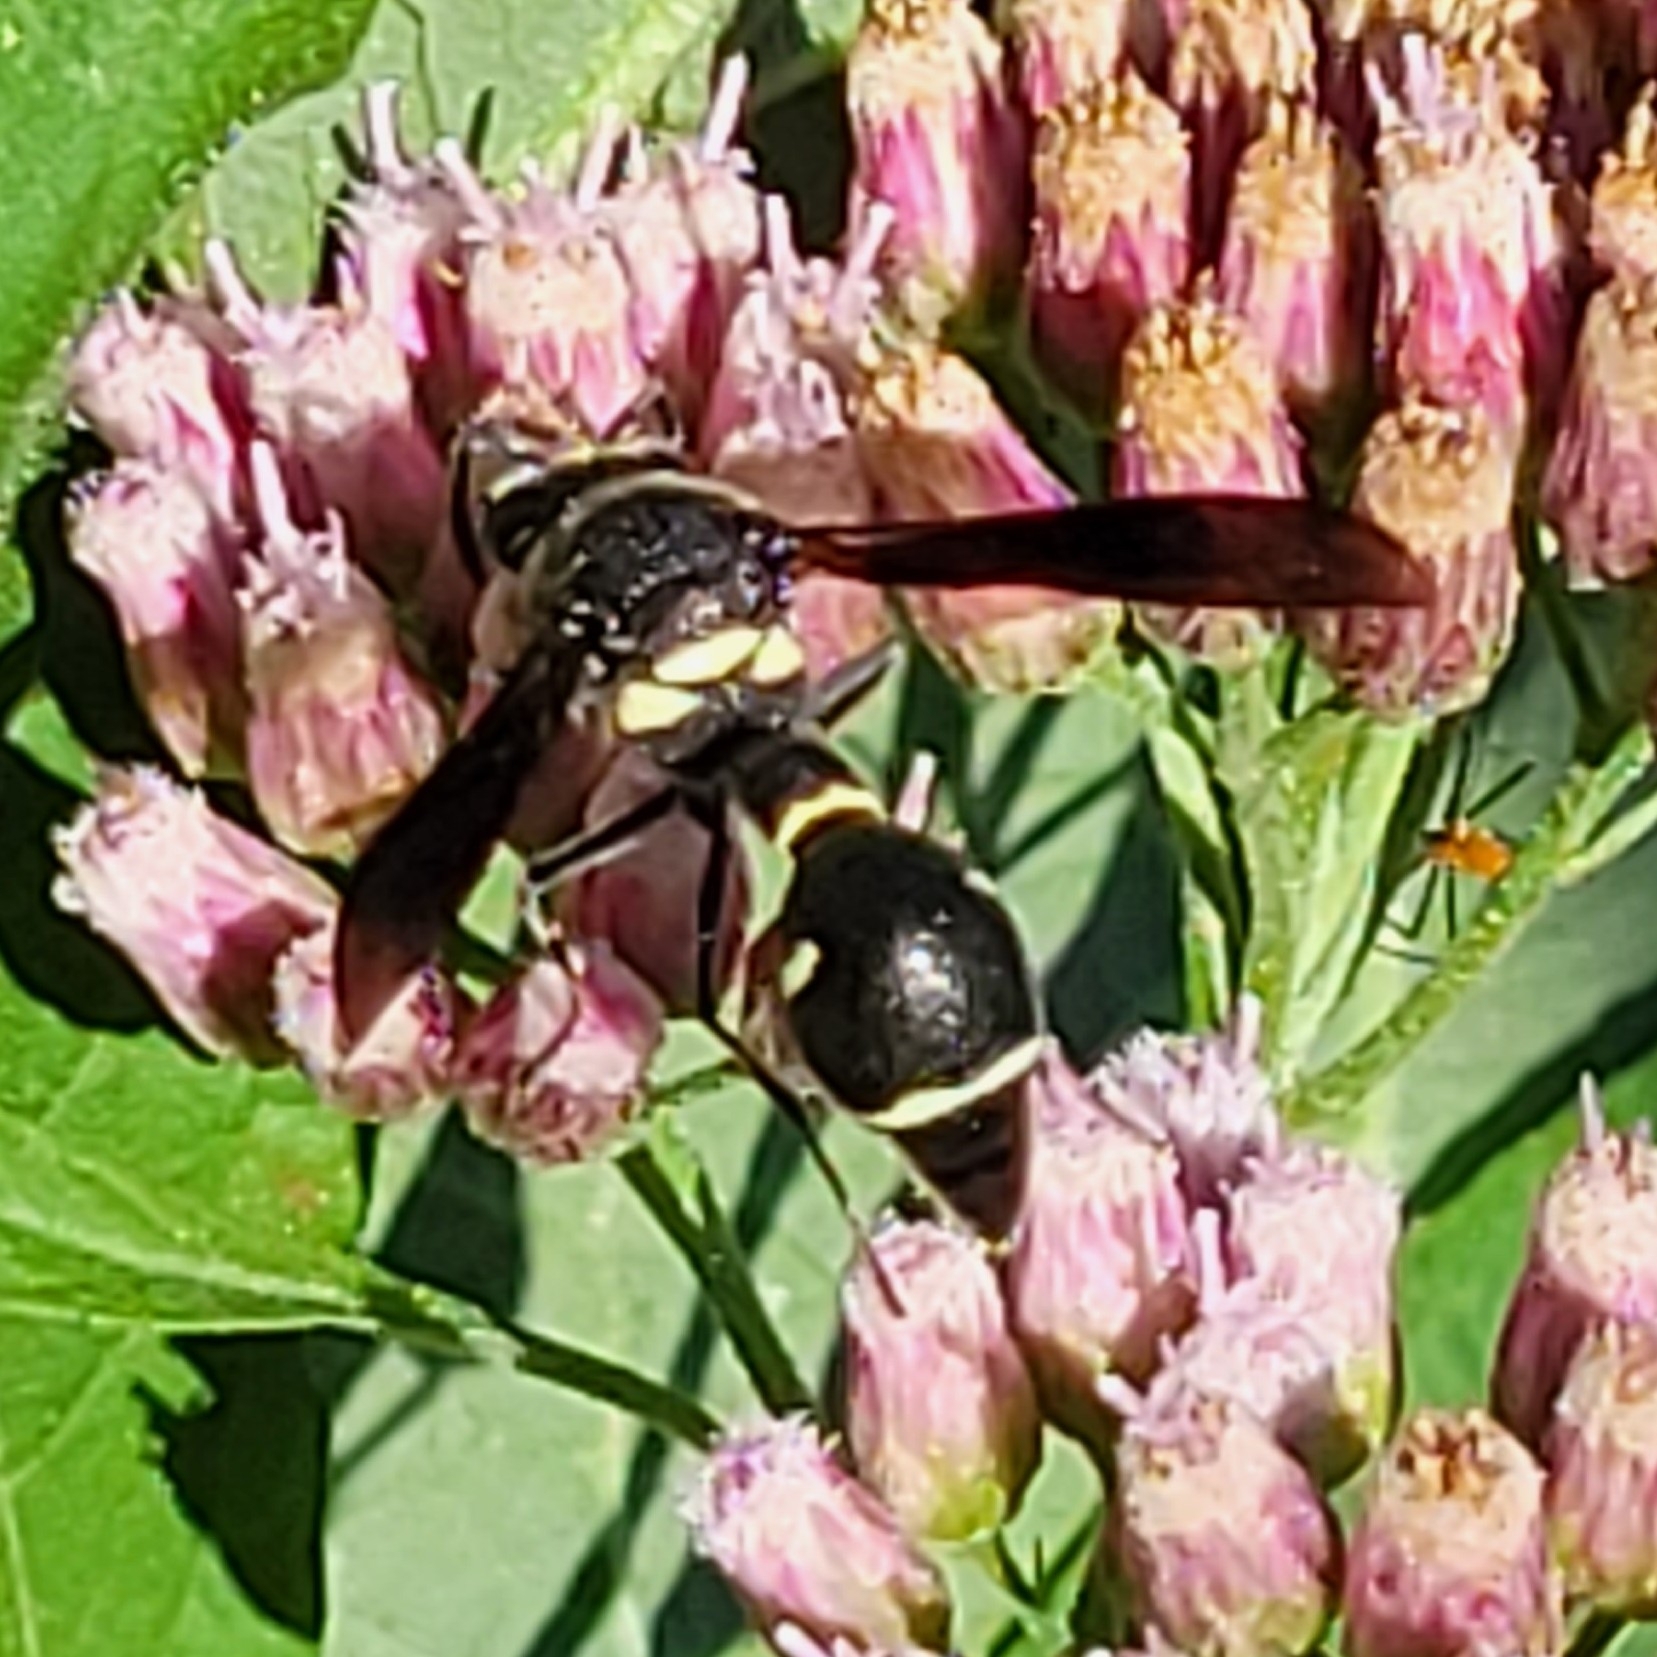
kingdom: Animalia
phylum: Arthropoda
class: Insecta
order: Hymenoptera
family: Vespidae
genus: Eumenes
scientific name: Eumenes fraternus
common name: Fraternal potter wasp
